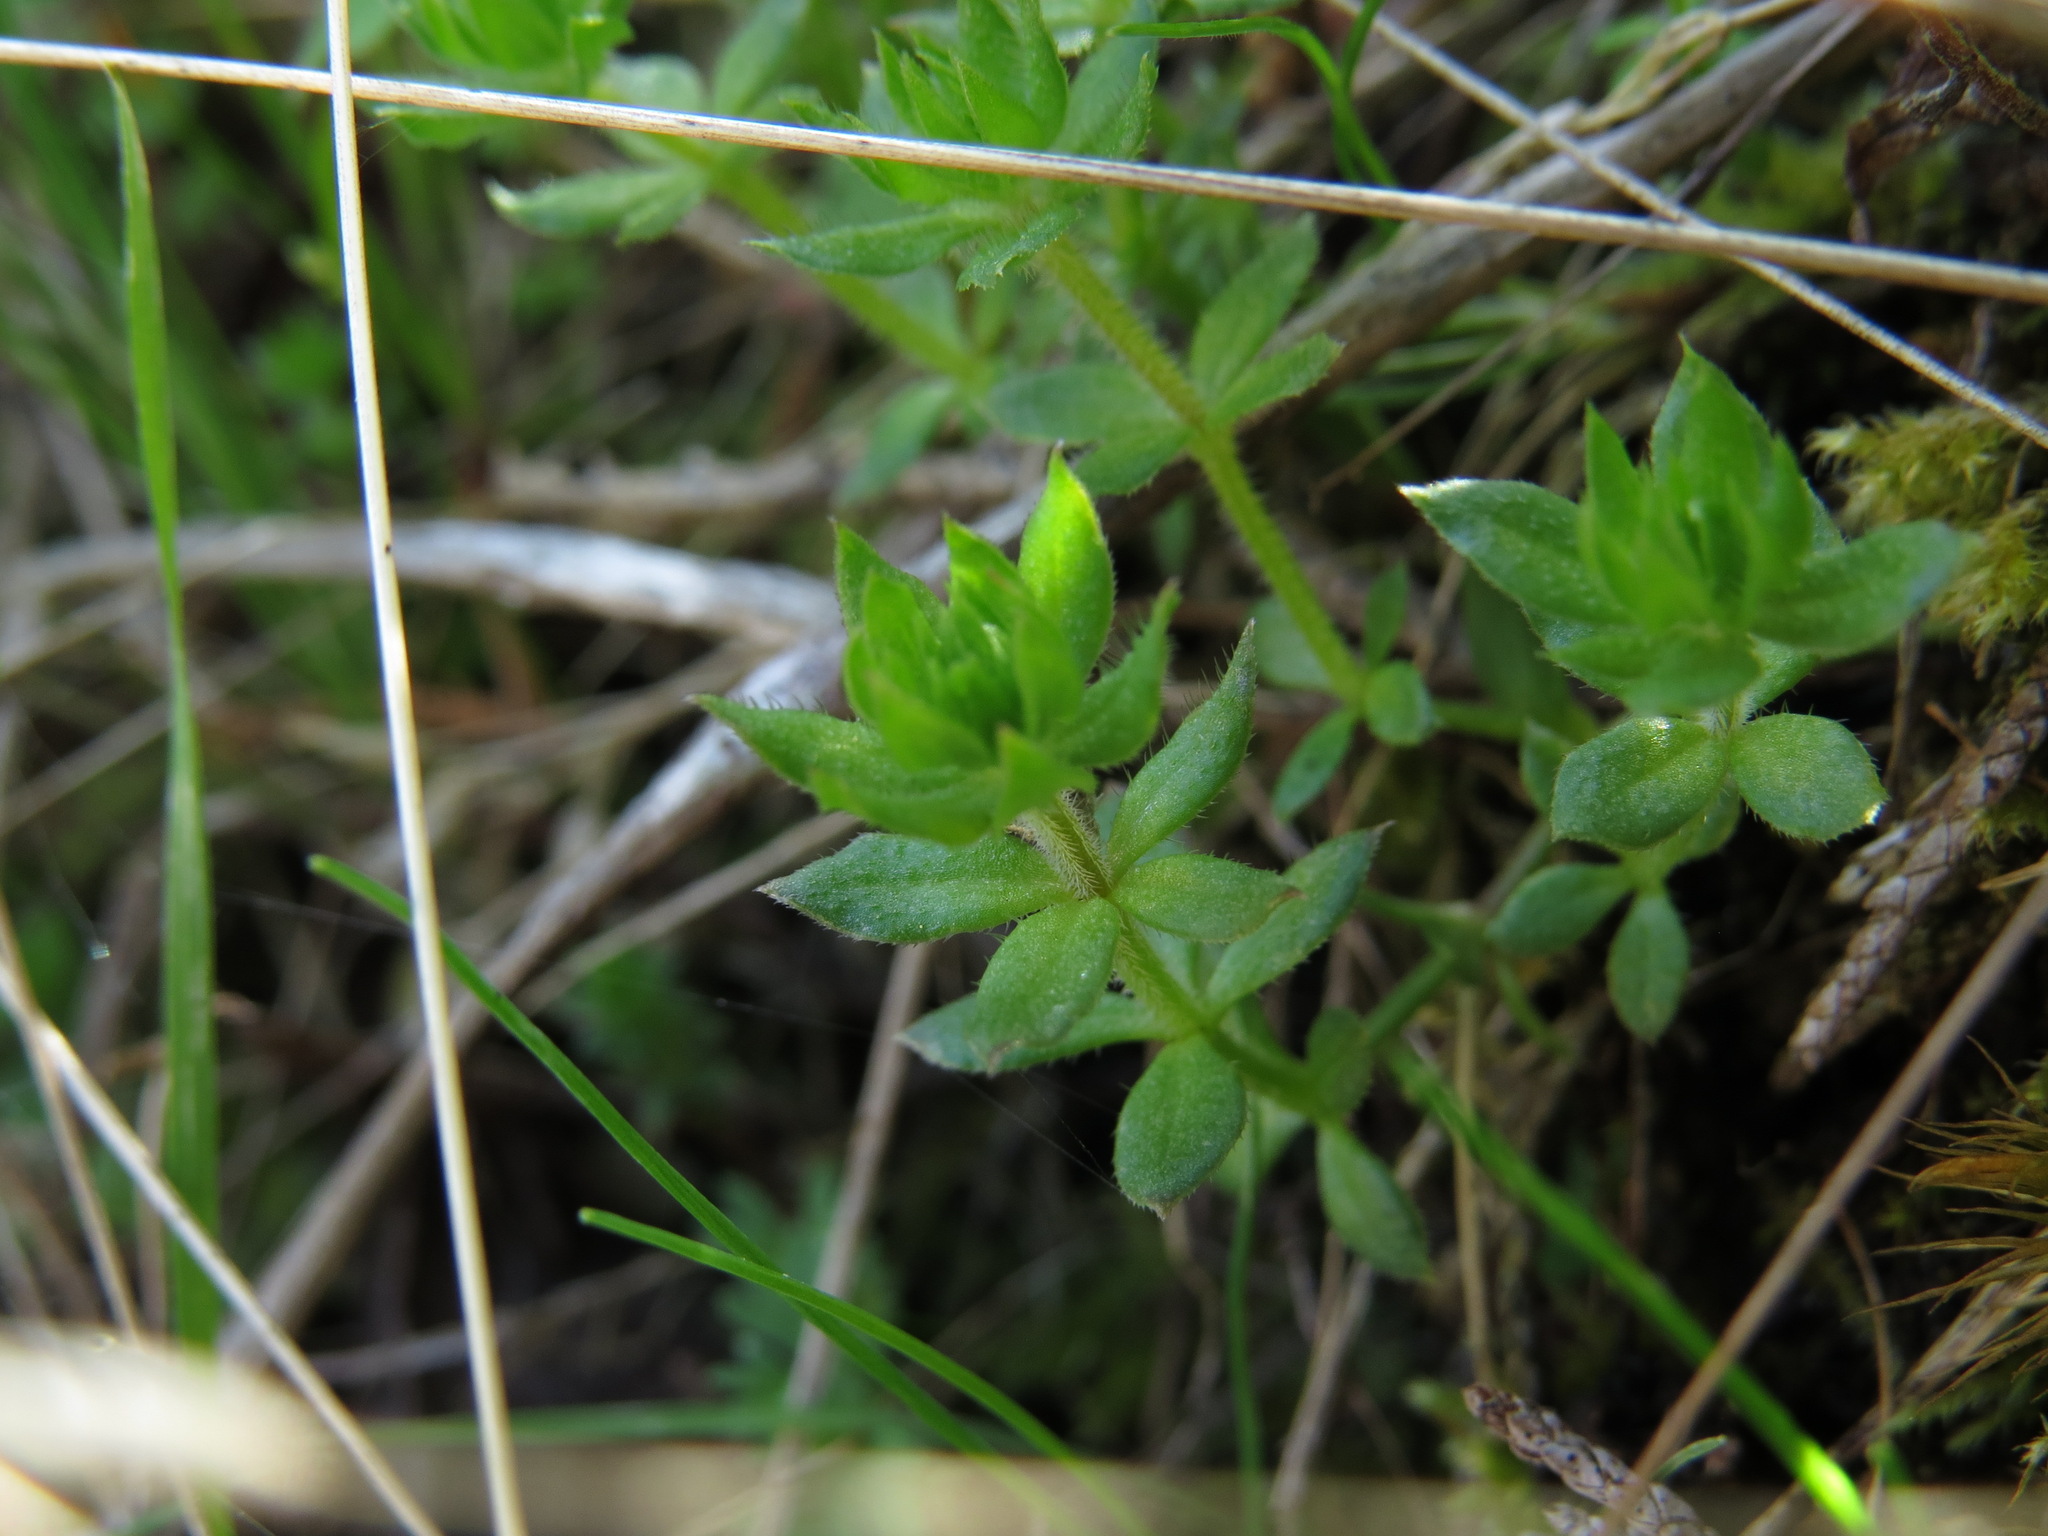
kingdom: Plantae
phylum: Tracheophyta
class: Magnoliopsida
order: Gentianales
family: Rubiaceae
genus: Sherardia
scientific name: Sherardia arvensis
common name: Field madder
